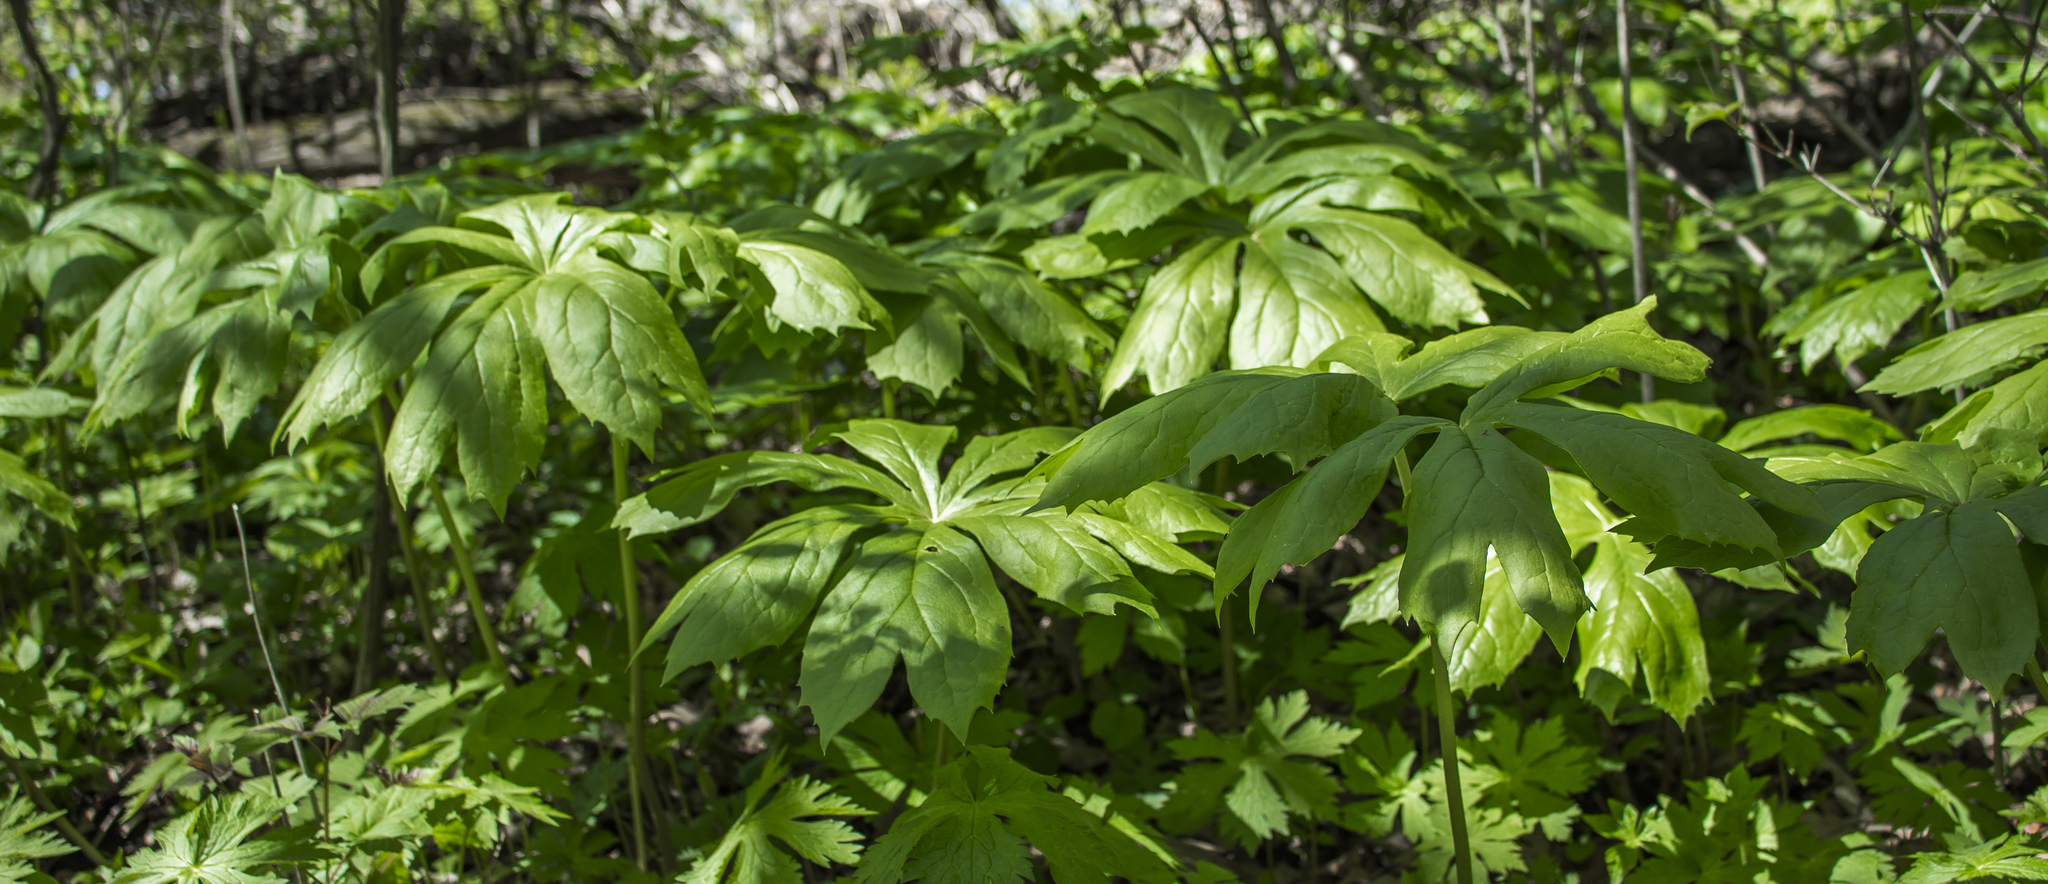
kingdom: Plantae
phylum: Tracheophyta
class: Magnoliopsida
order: Ranunculales
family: Berberidaceae
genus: Podophyllum
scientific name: Podophyllum peltatum
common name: Wild mandrake
